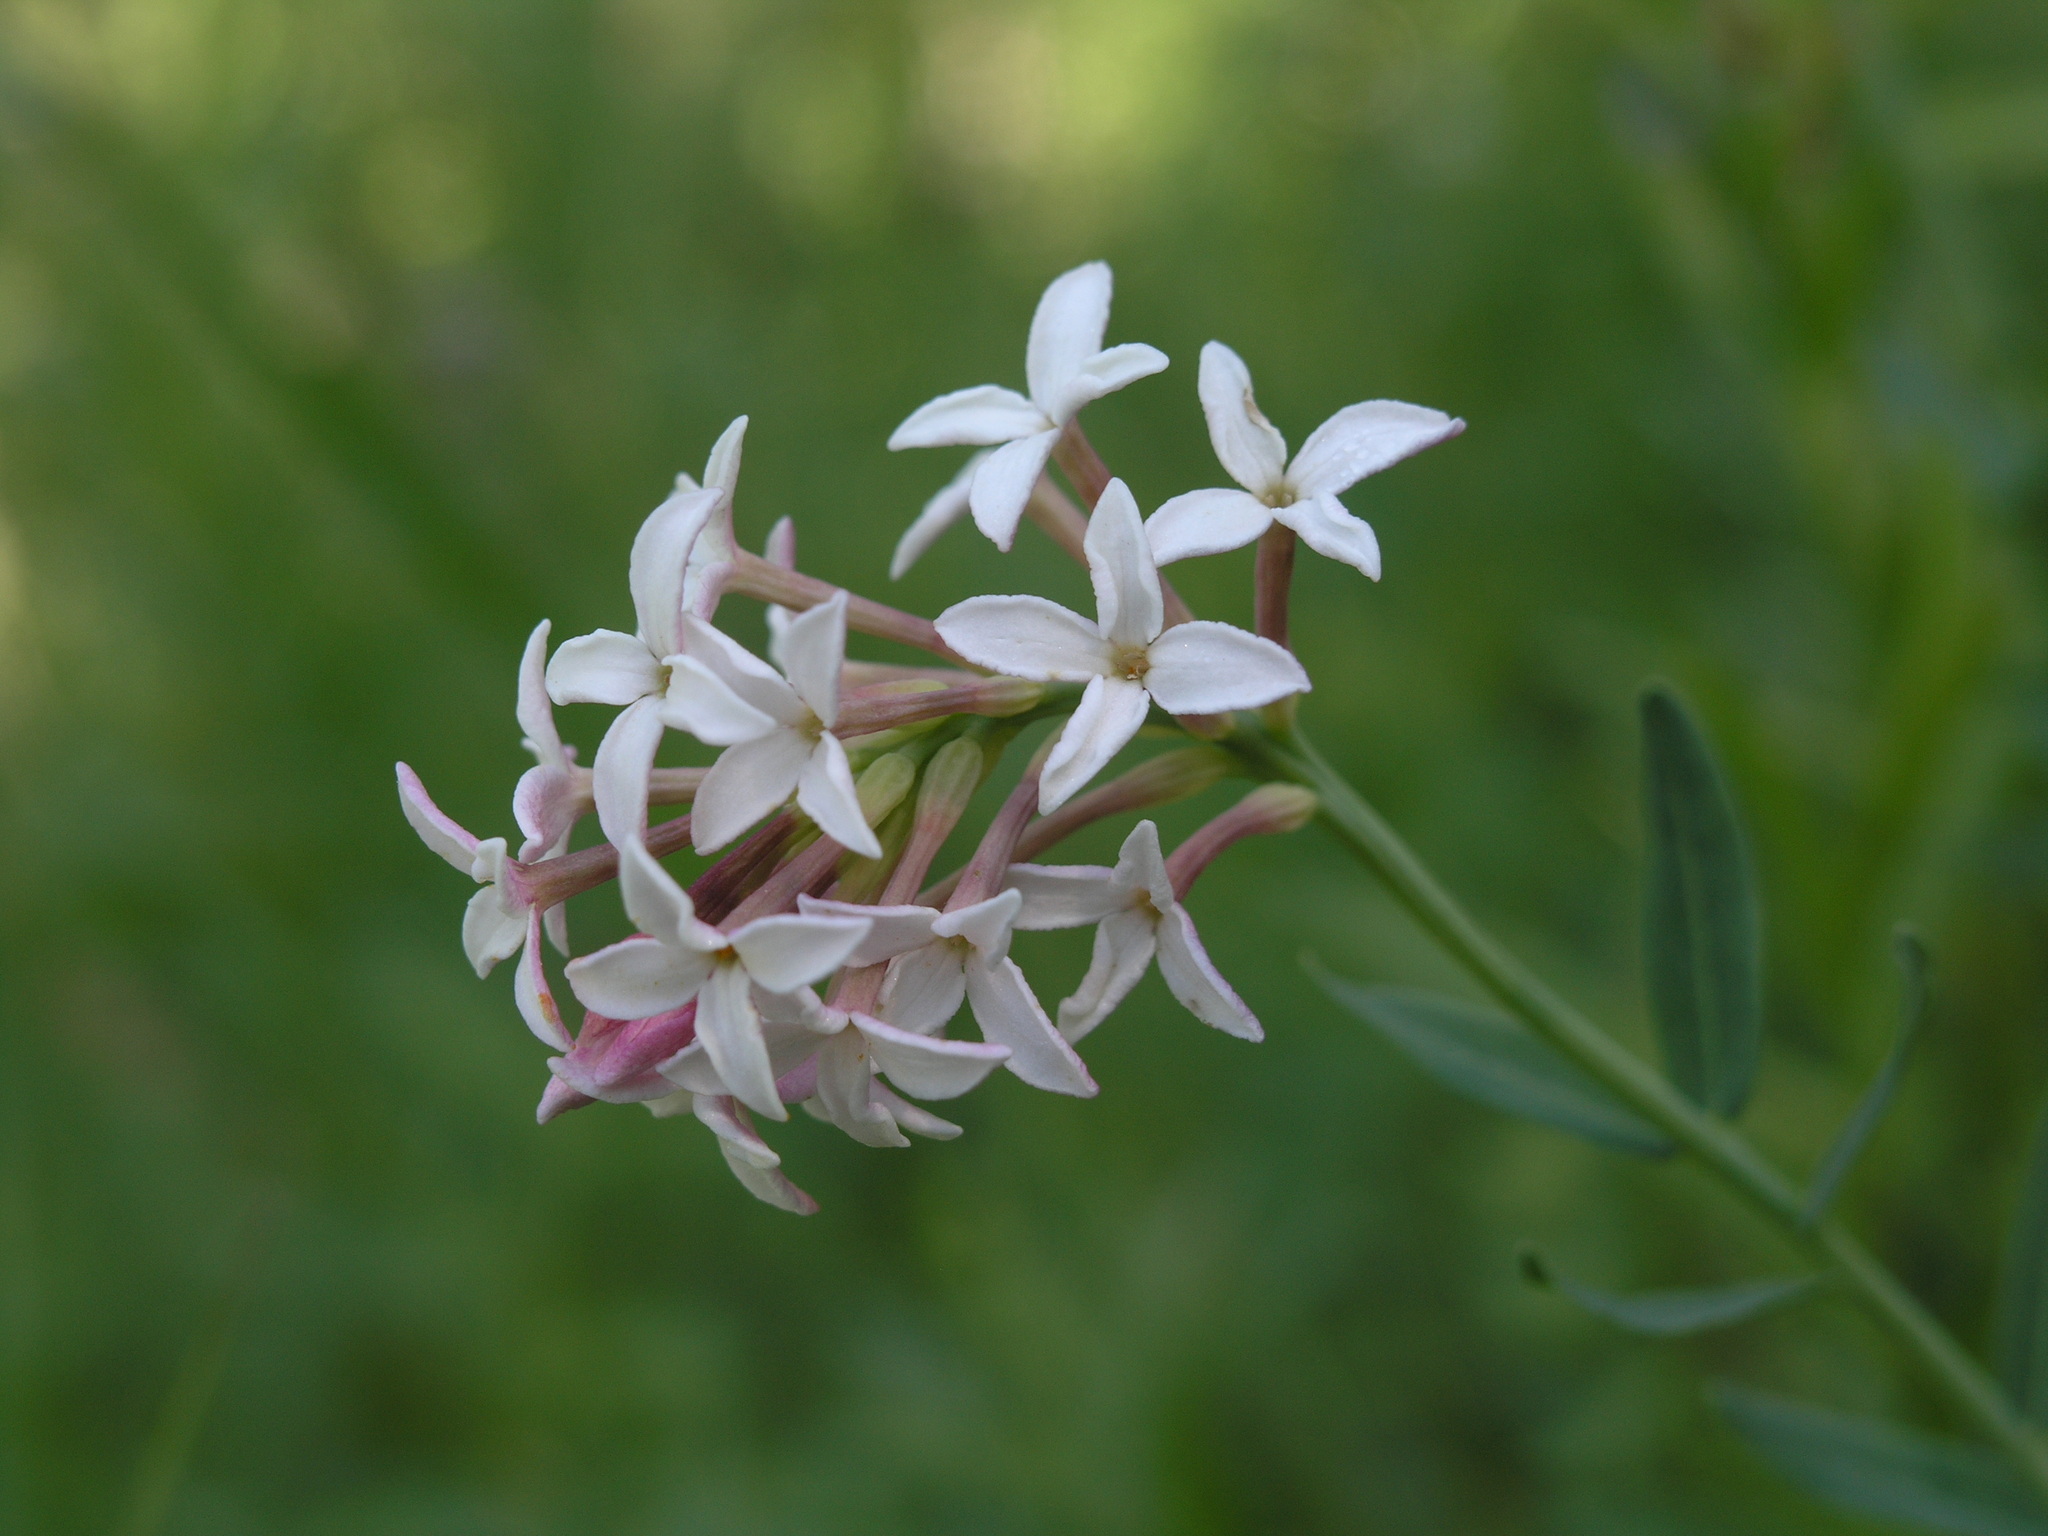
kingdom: Plantae
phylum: Tracheophyta
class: Magnoliopsida
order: Malvales
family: Thymelaeaceae
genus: Diarthron
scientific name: Diarthron altaicum
